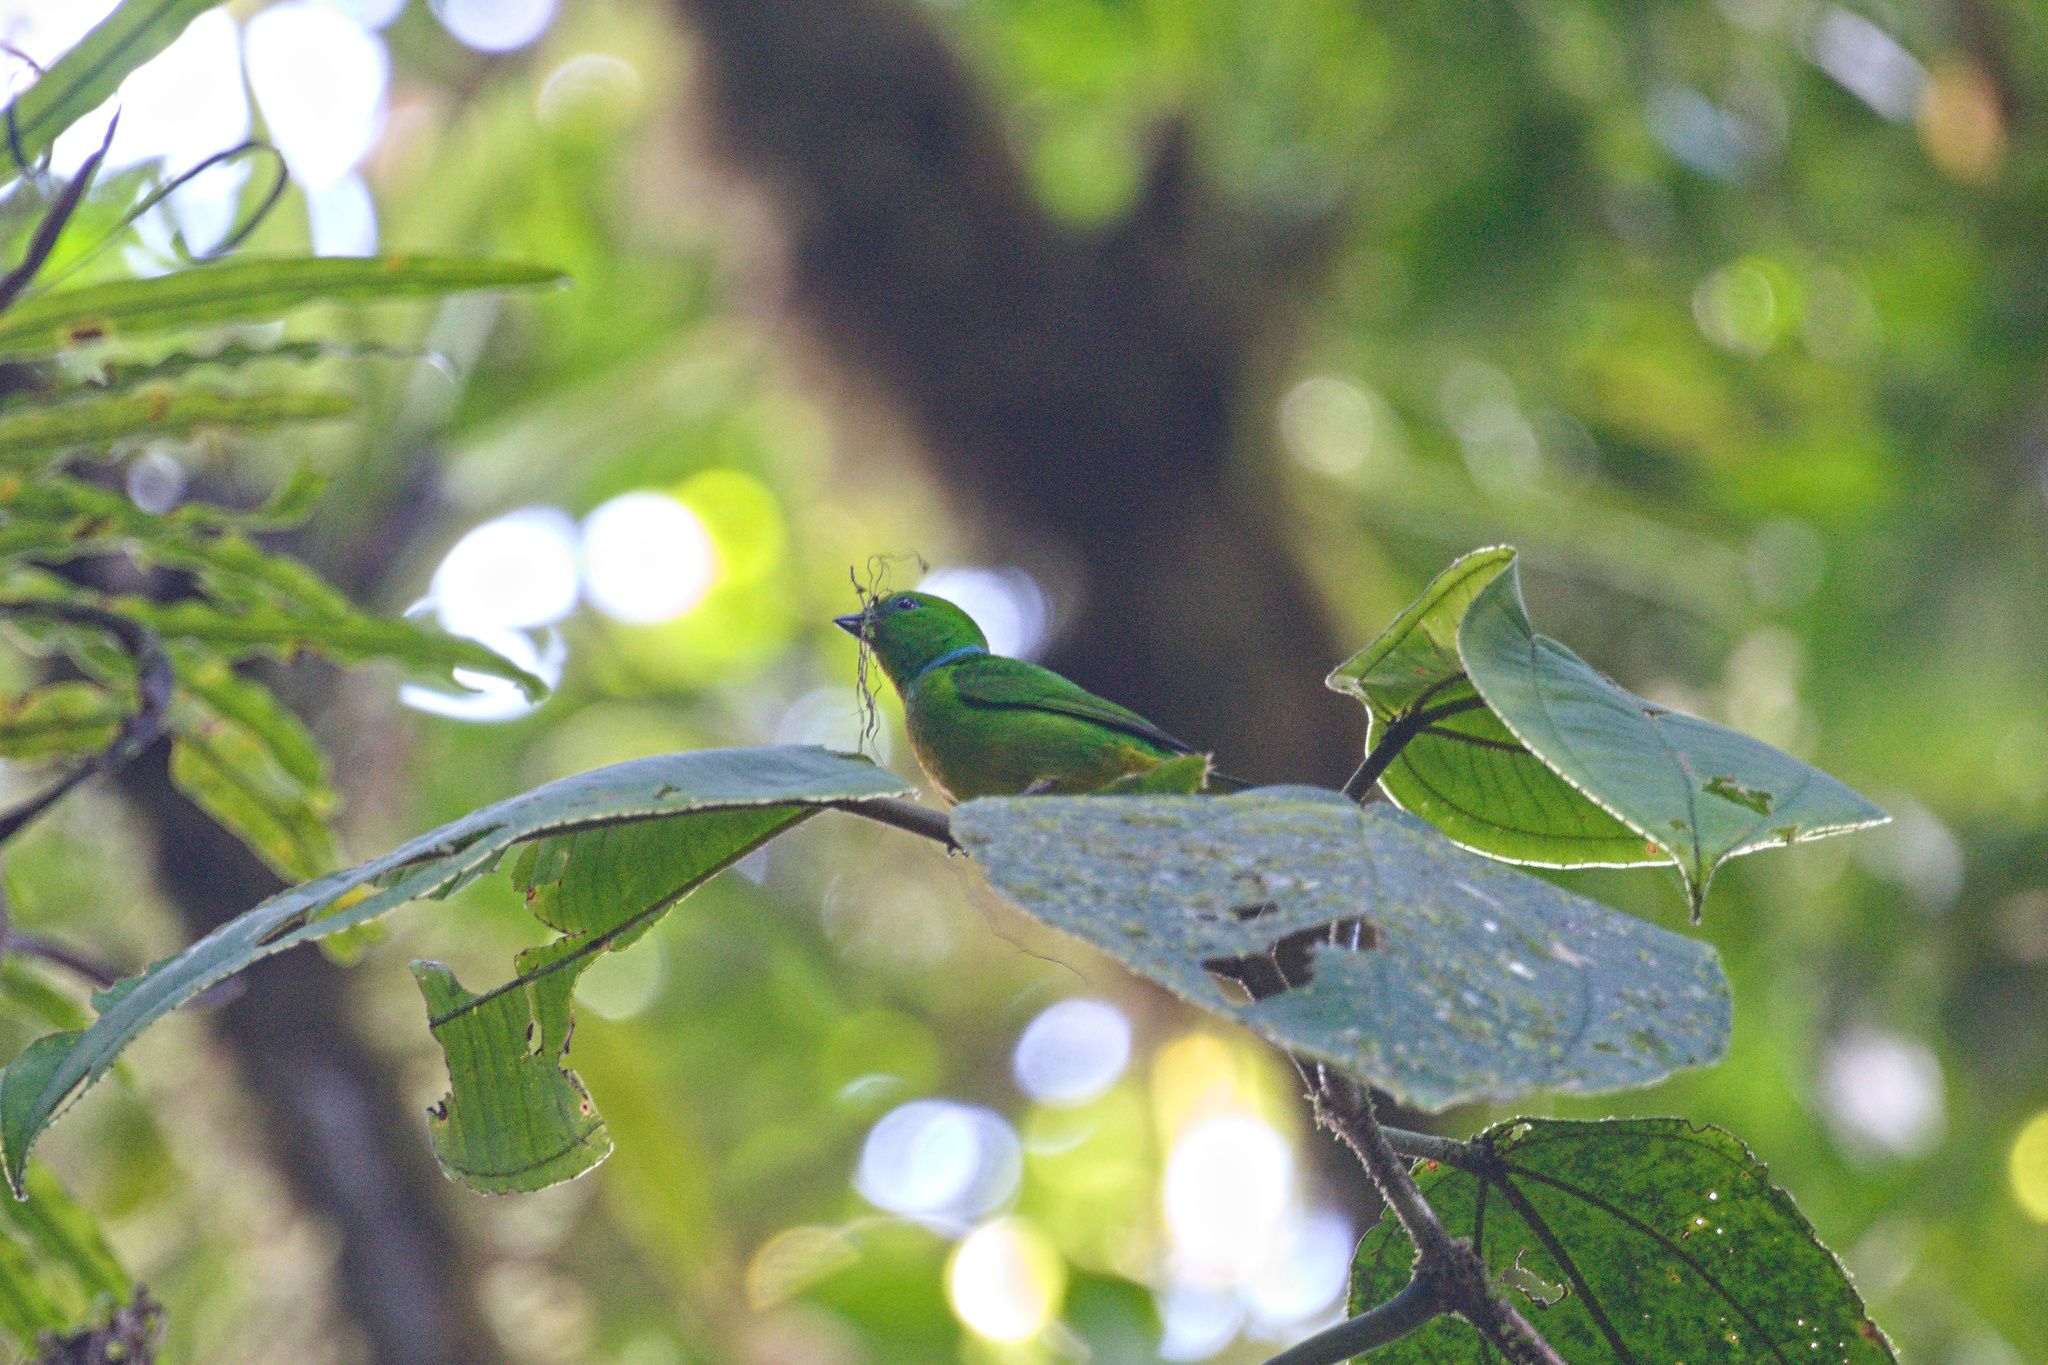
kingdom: Animalia
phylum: Chordata
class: Aves
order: Passeriformes
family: Fringillidae
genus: Chlorophonia
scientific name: Chlorophonia callophrys
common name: Golden-browed chlorophonia
